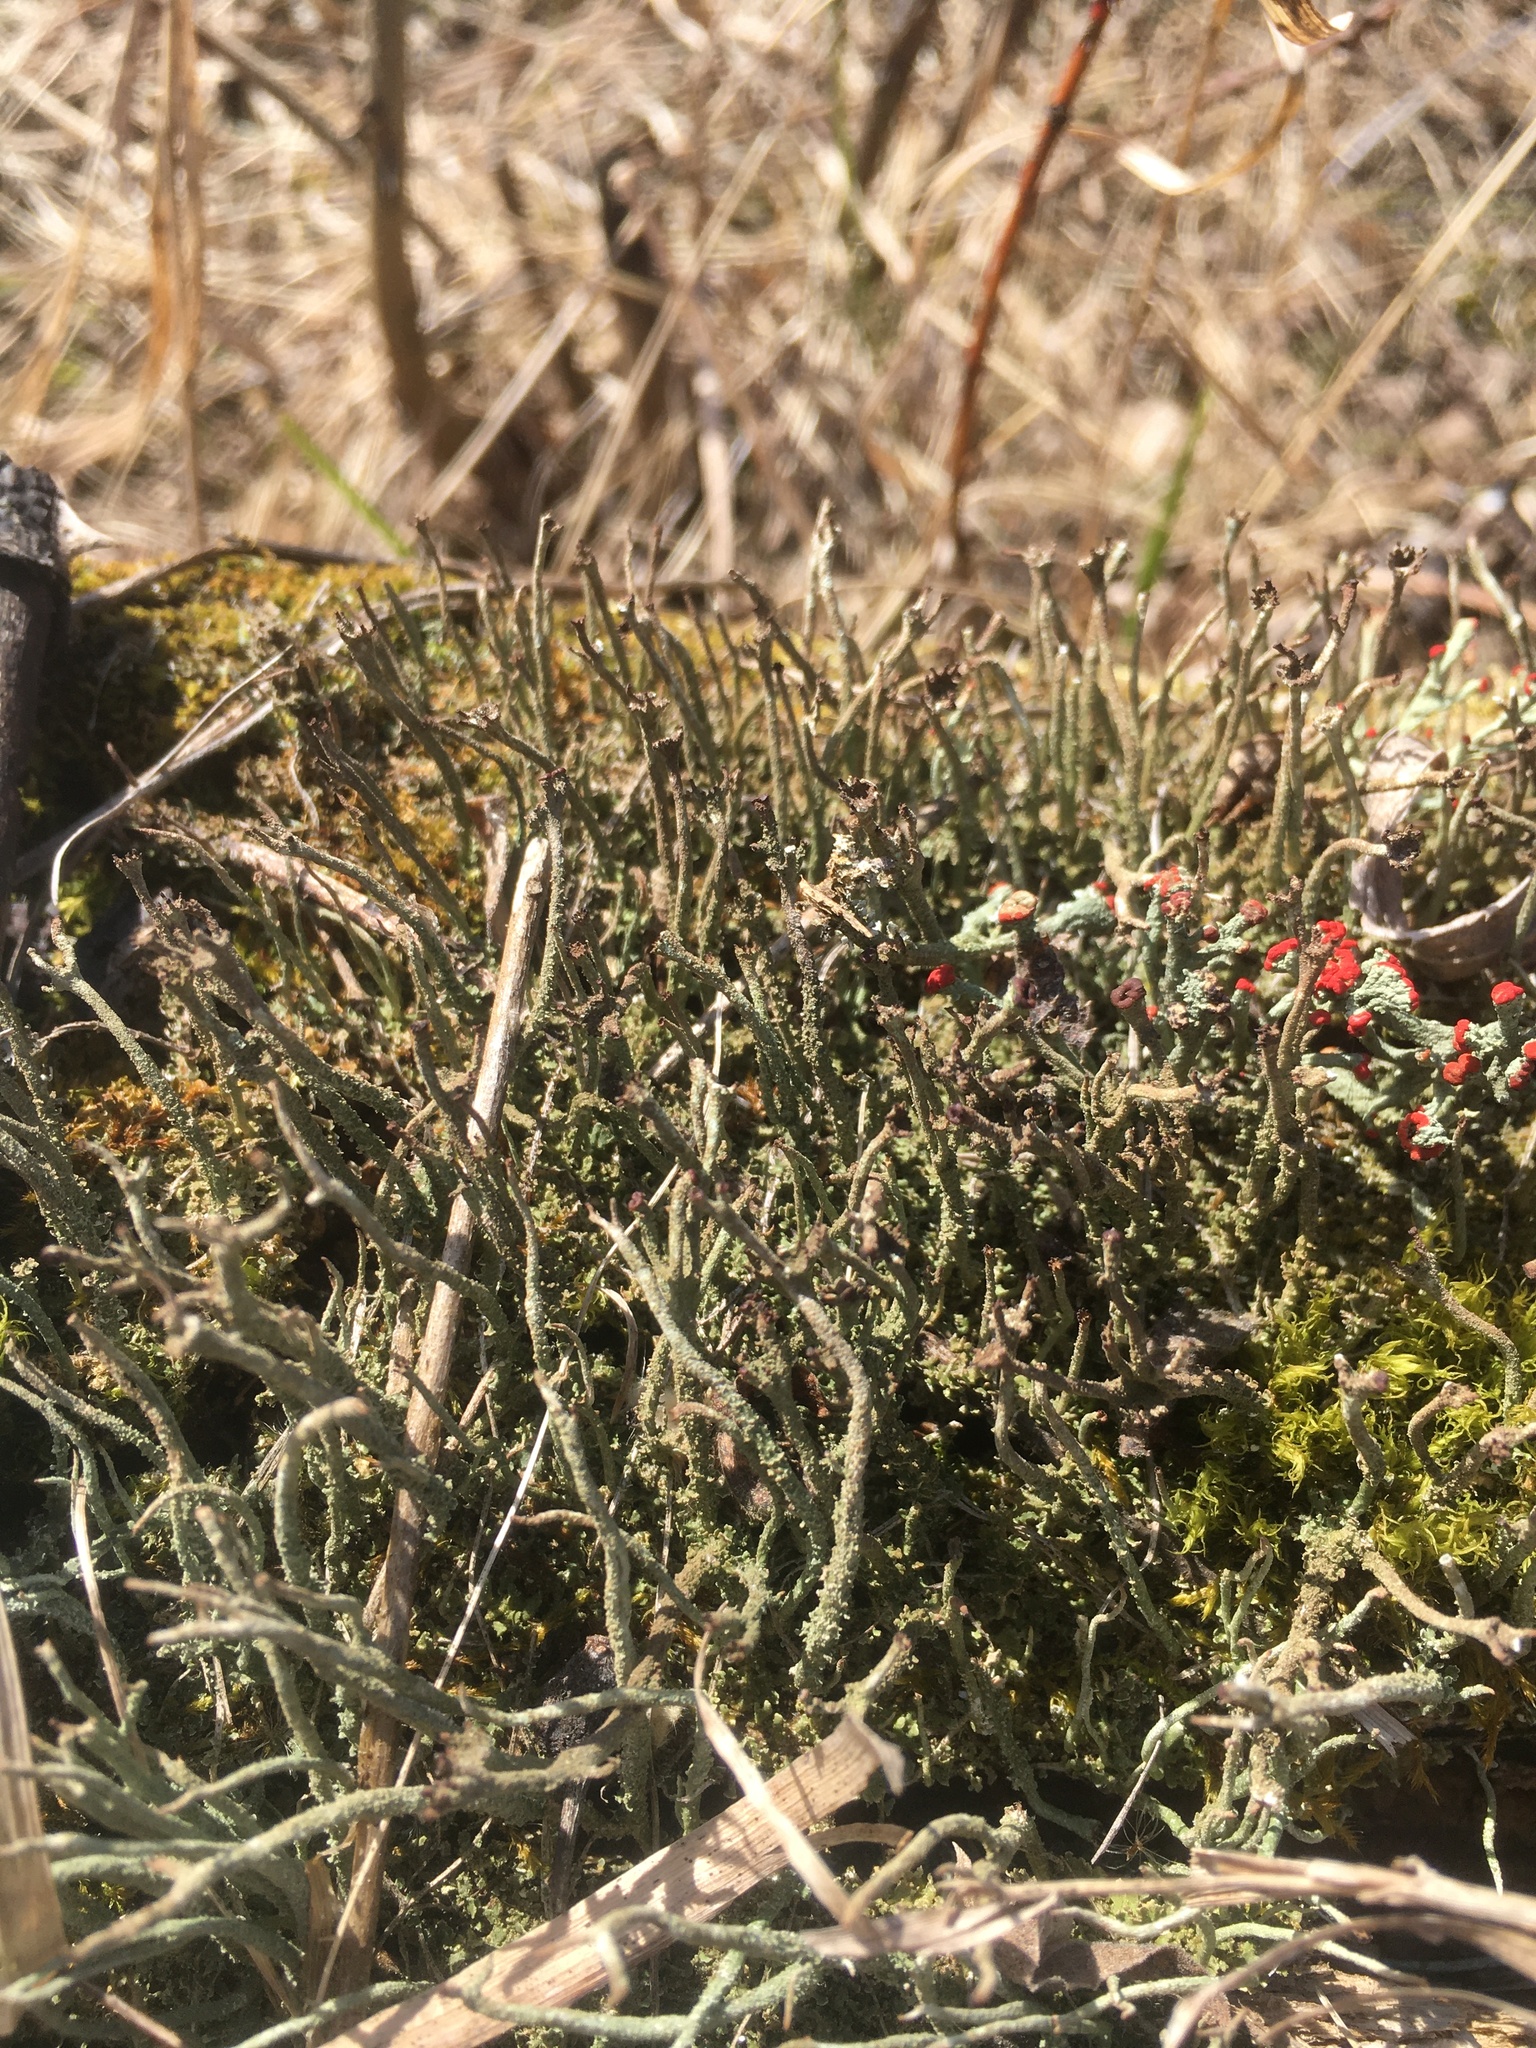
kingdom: Fungi
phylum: Ascomycota
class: Lecanoromycetes
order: Lecanorales
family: Cladoniaceae
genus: Cladonia
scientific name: Cladonia rei
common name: Wand lichen
